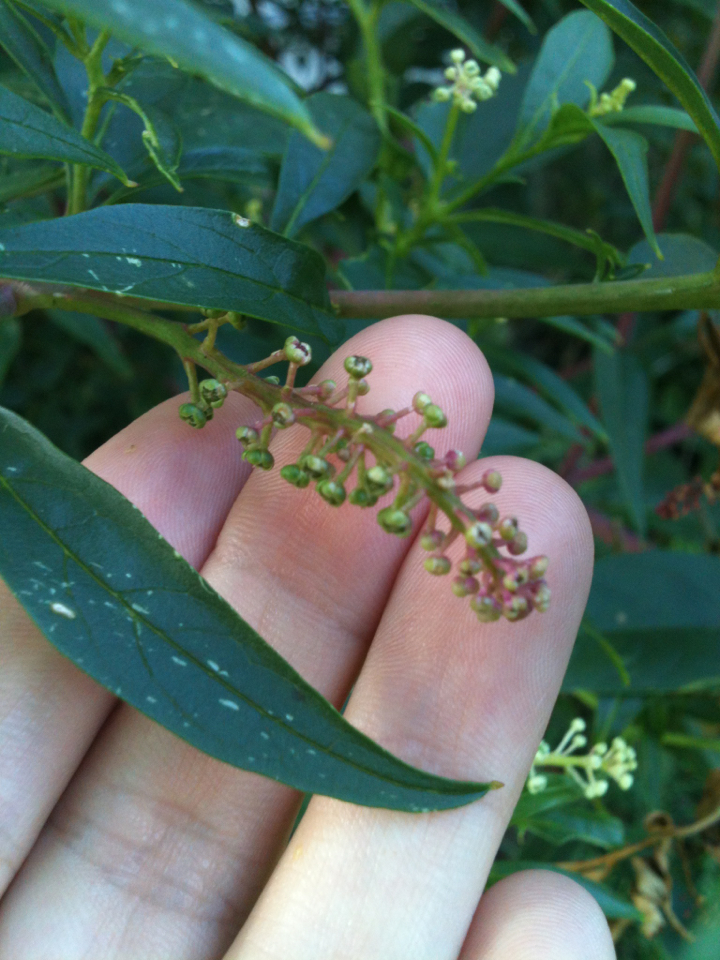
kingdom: Plantae
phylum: Tracheophyta
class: Magnoliopsida
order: Caryophyllales
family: Phytolaccaceae
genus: Phytolacca
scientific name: Phytolacca americana
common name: American pokeweed
